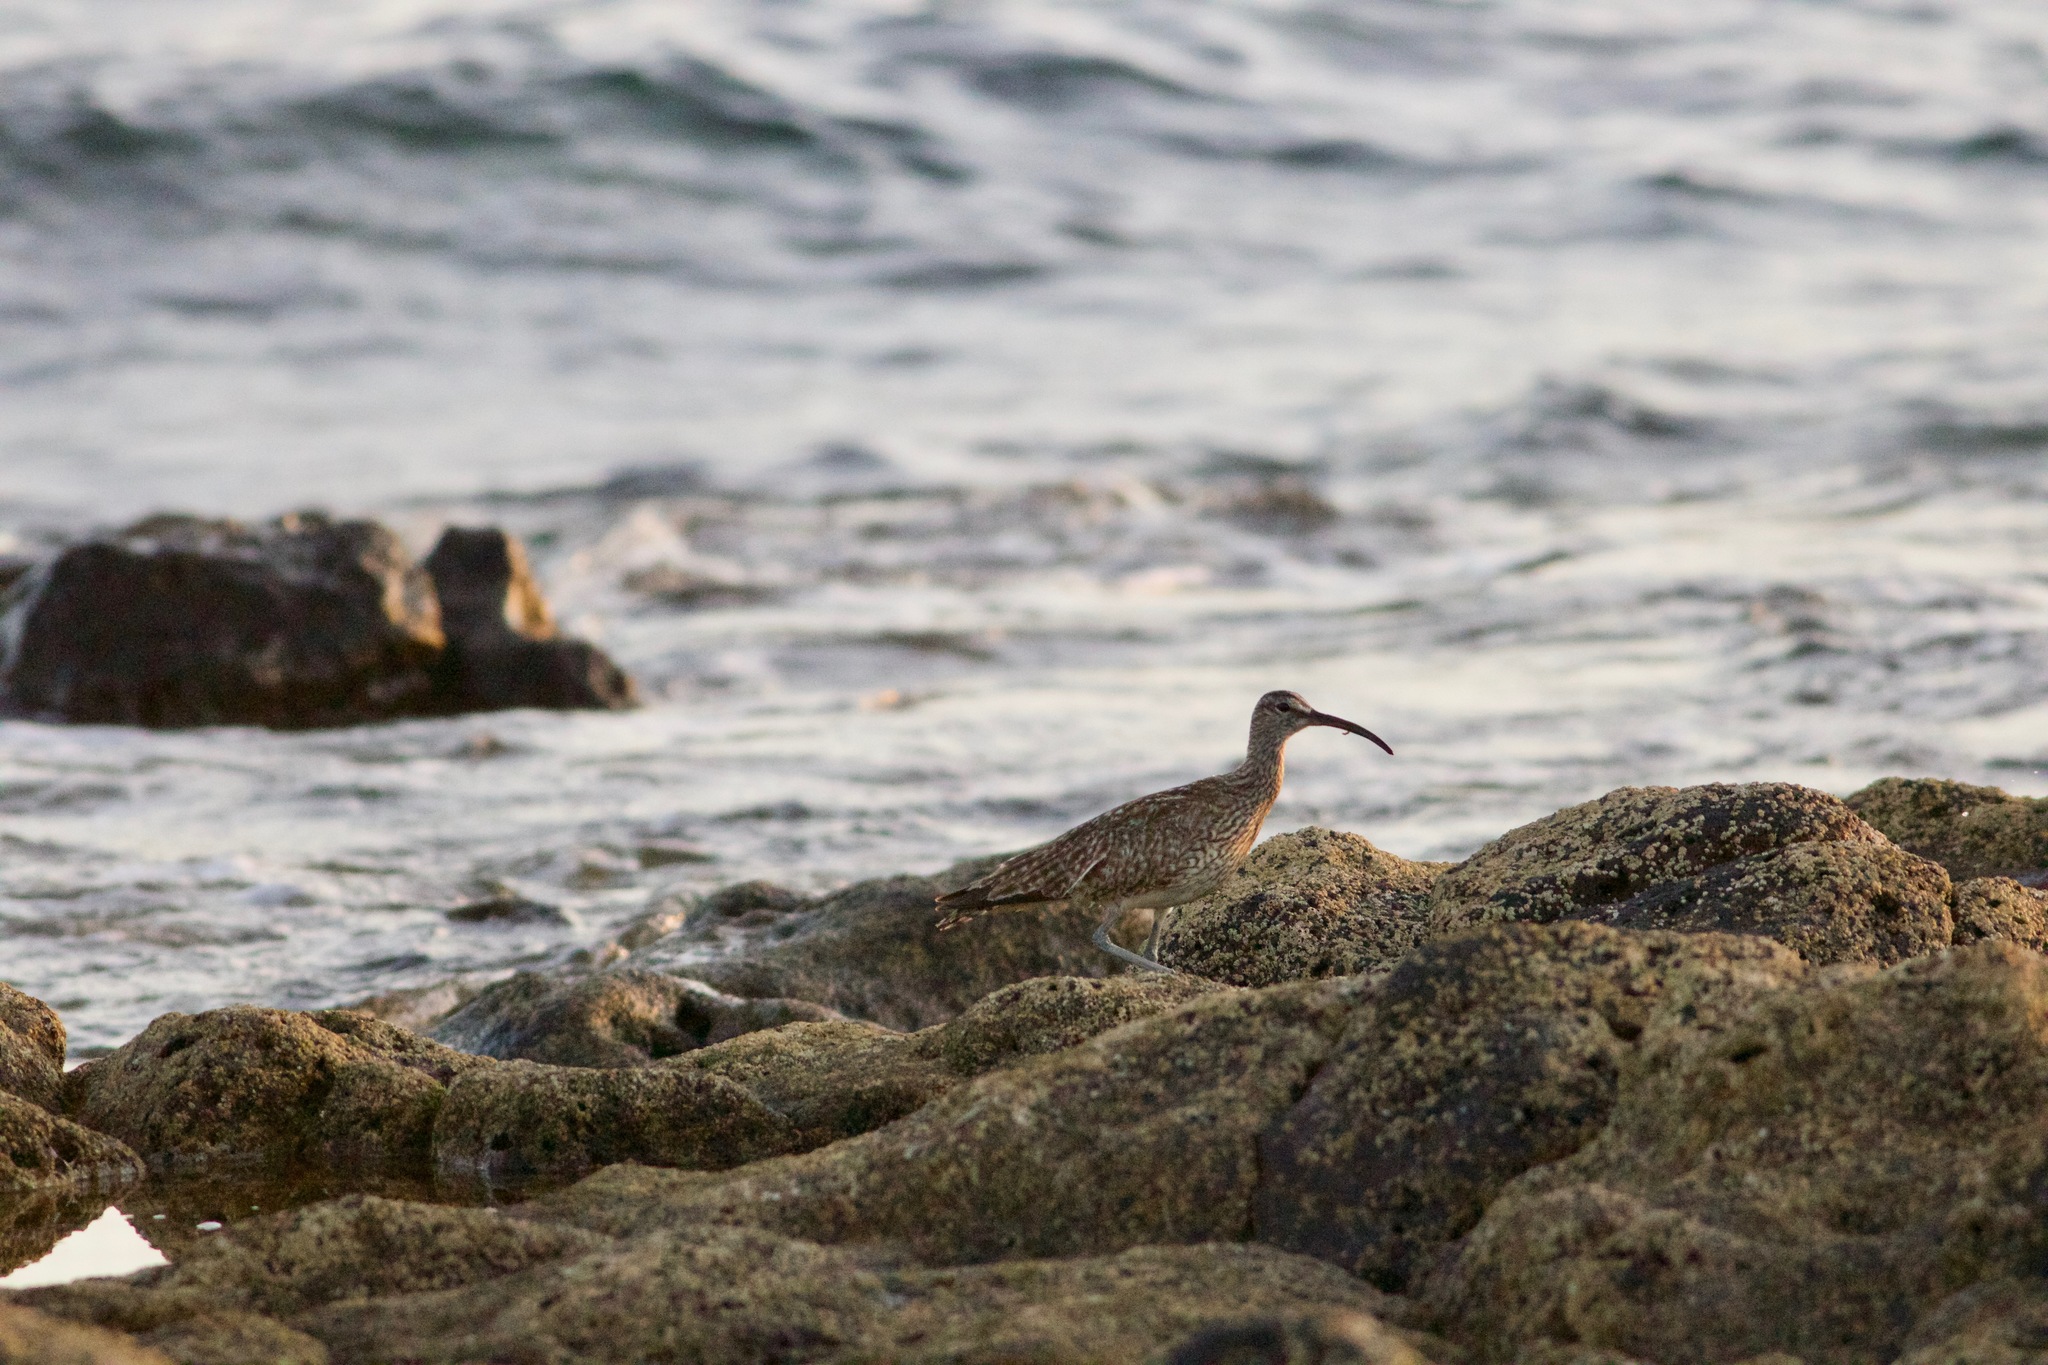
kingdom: Animalia
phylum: Chordata
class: Aves
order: Charadriiformes
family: Scolopacidae
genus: Numenius
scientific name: Numenius phaeopus
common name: Whimbrel
